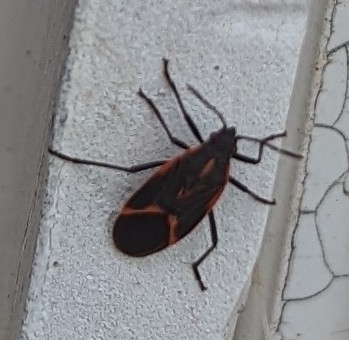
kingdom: Animalia
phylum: Arthropoda
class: Insecta
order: Hemiptera
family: Rhopalidae
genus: Boisea
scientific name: Boisea trivittata
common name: Boxelder bug
